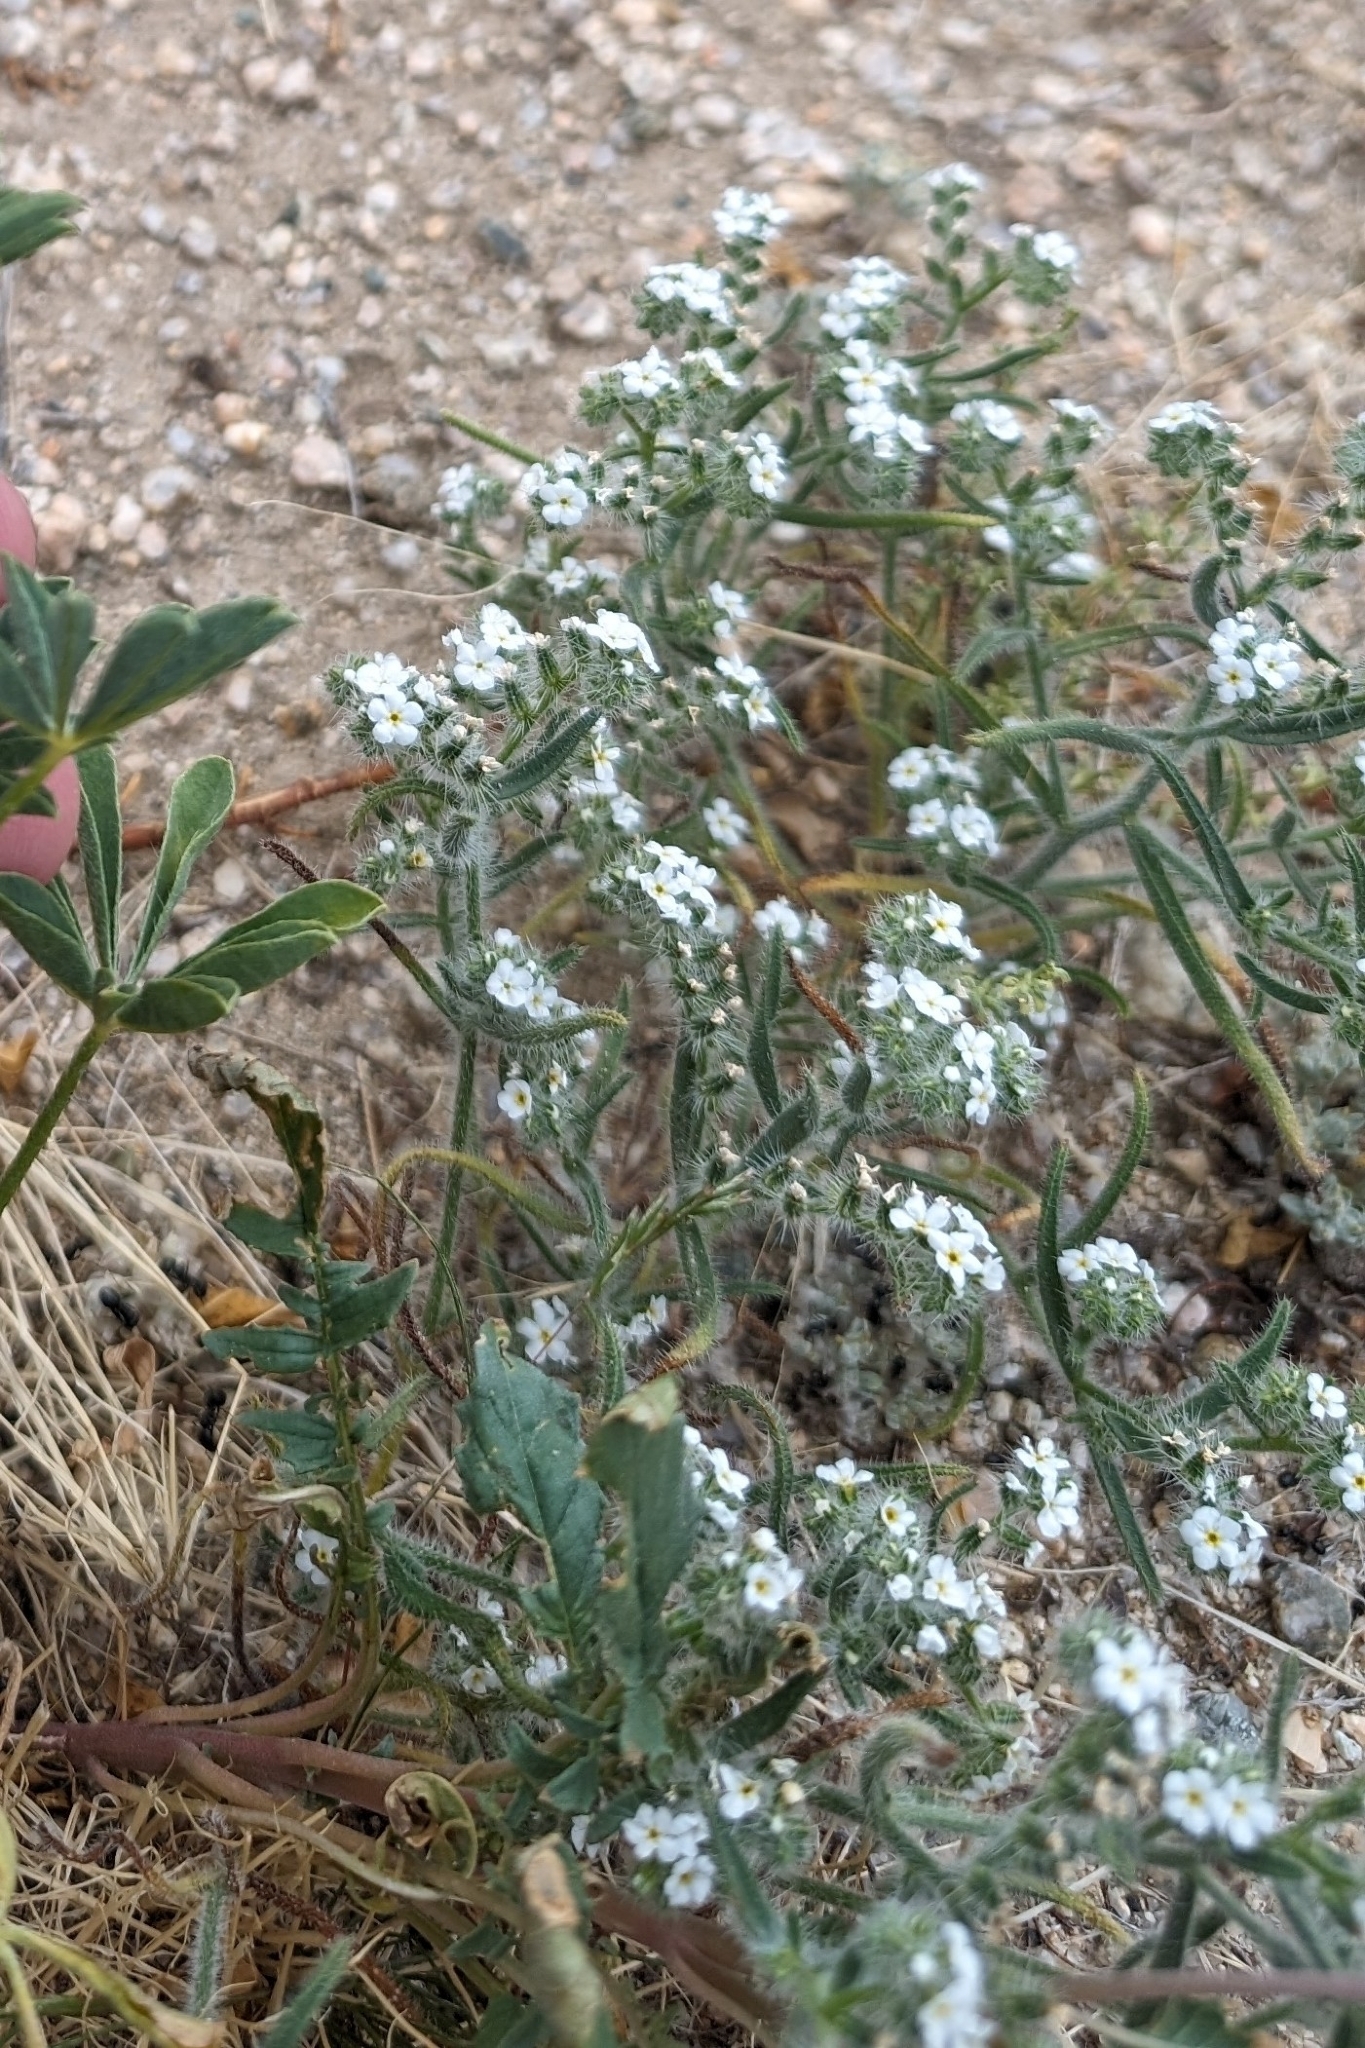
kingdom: Plantae
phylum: Tracheophyta
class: Magnoliopsida
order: Boraginales
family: Boraginaceae
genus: Johnstonella
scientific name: Johnstonella angustifolia
